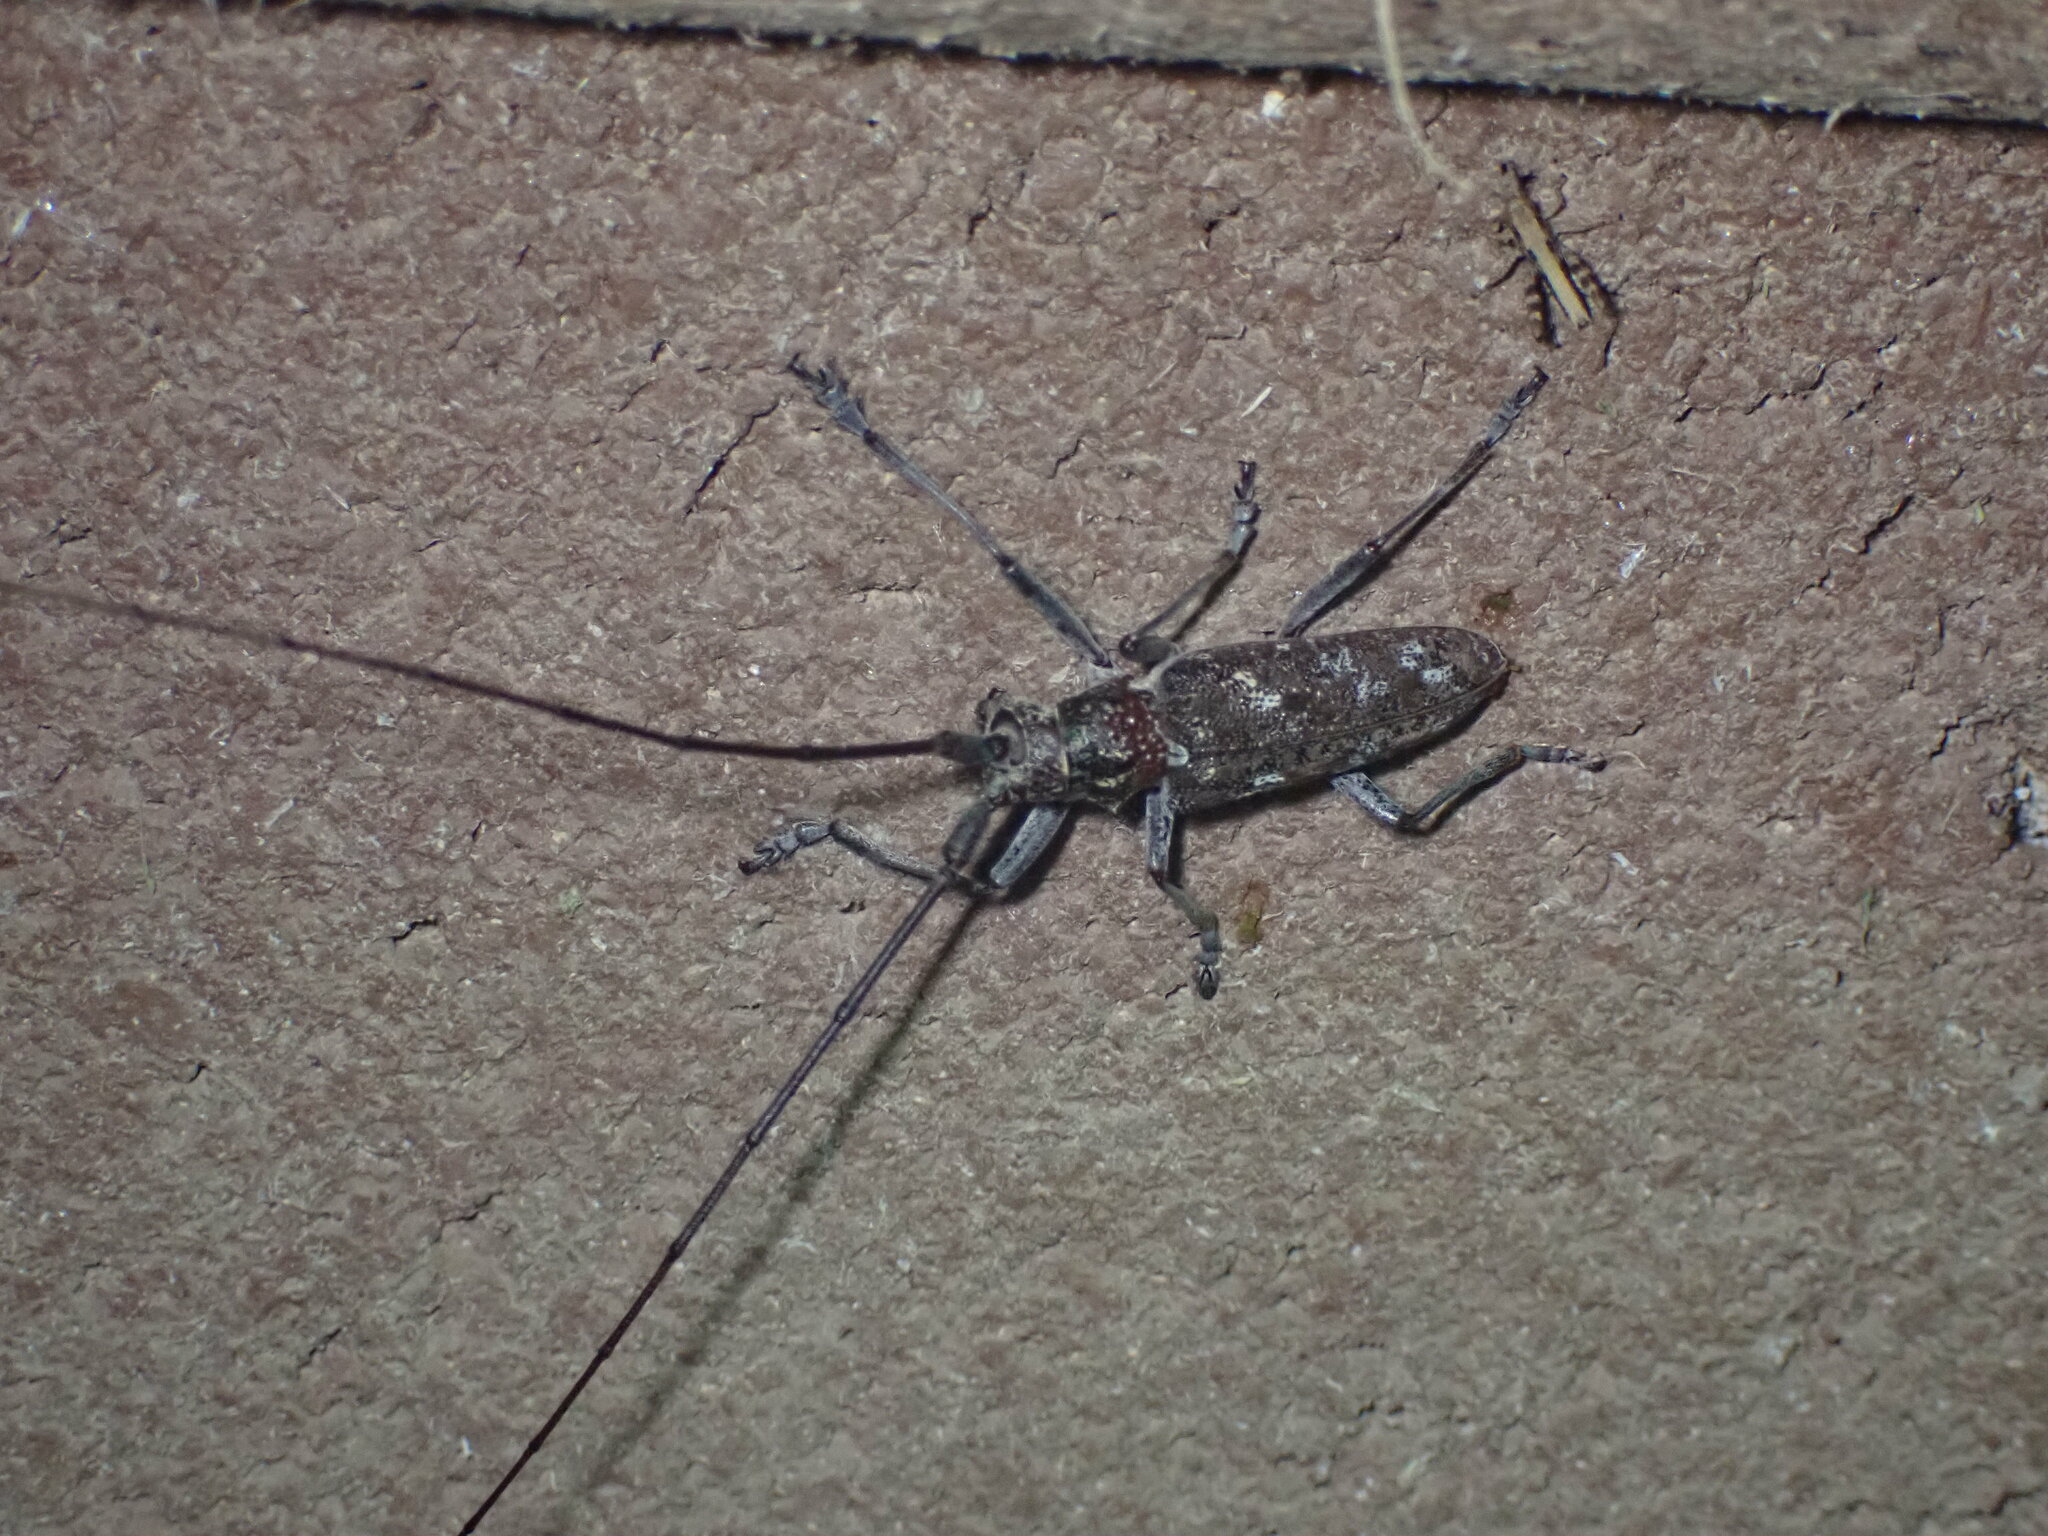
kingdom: Animalia
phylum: Arthropoda
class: Insecta
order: Coleoptera
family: Cerambycidae
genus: Monochamus
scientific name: Monochamus carolinensis
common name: Carolina pine sawyer
